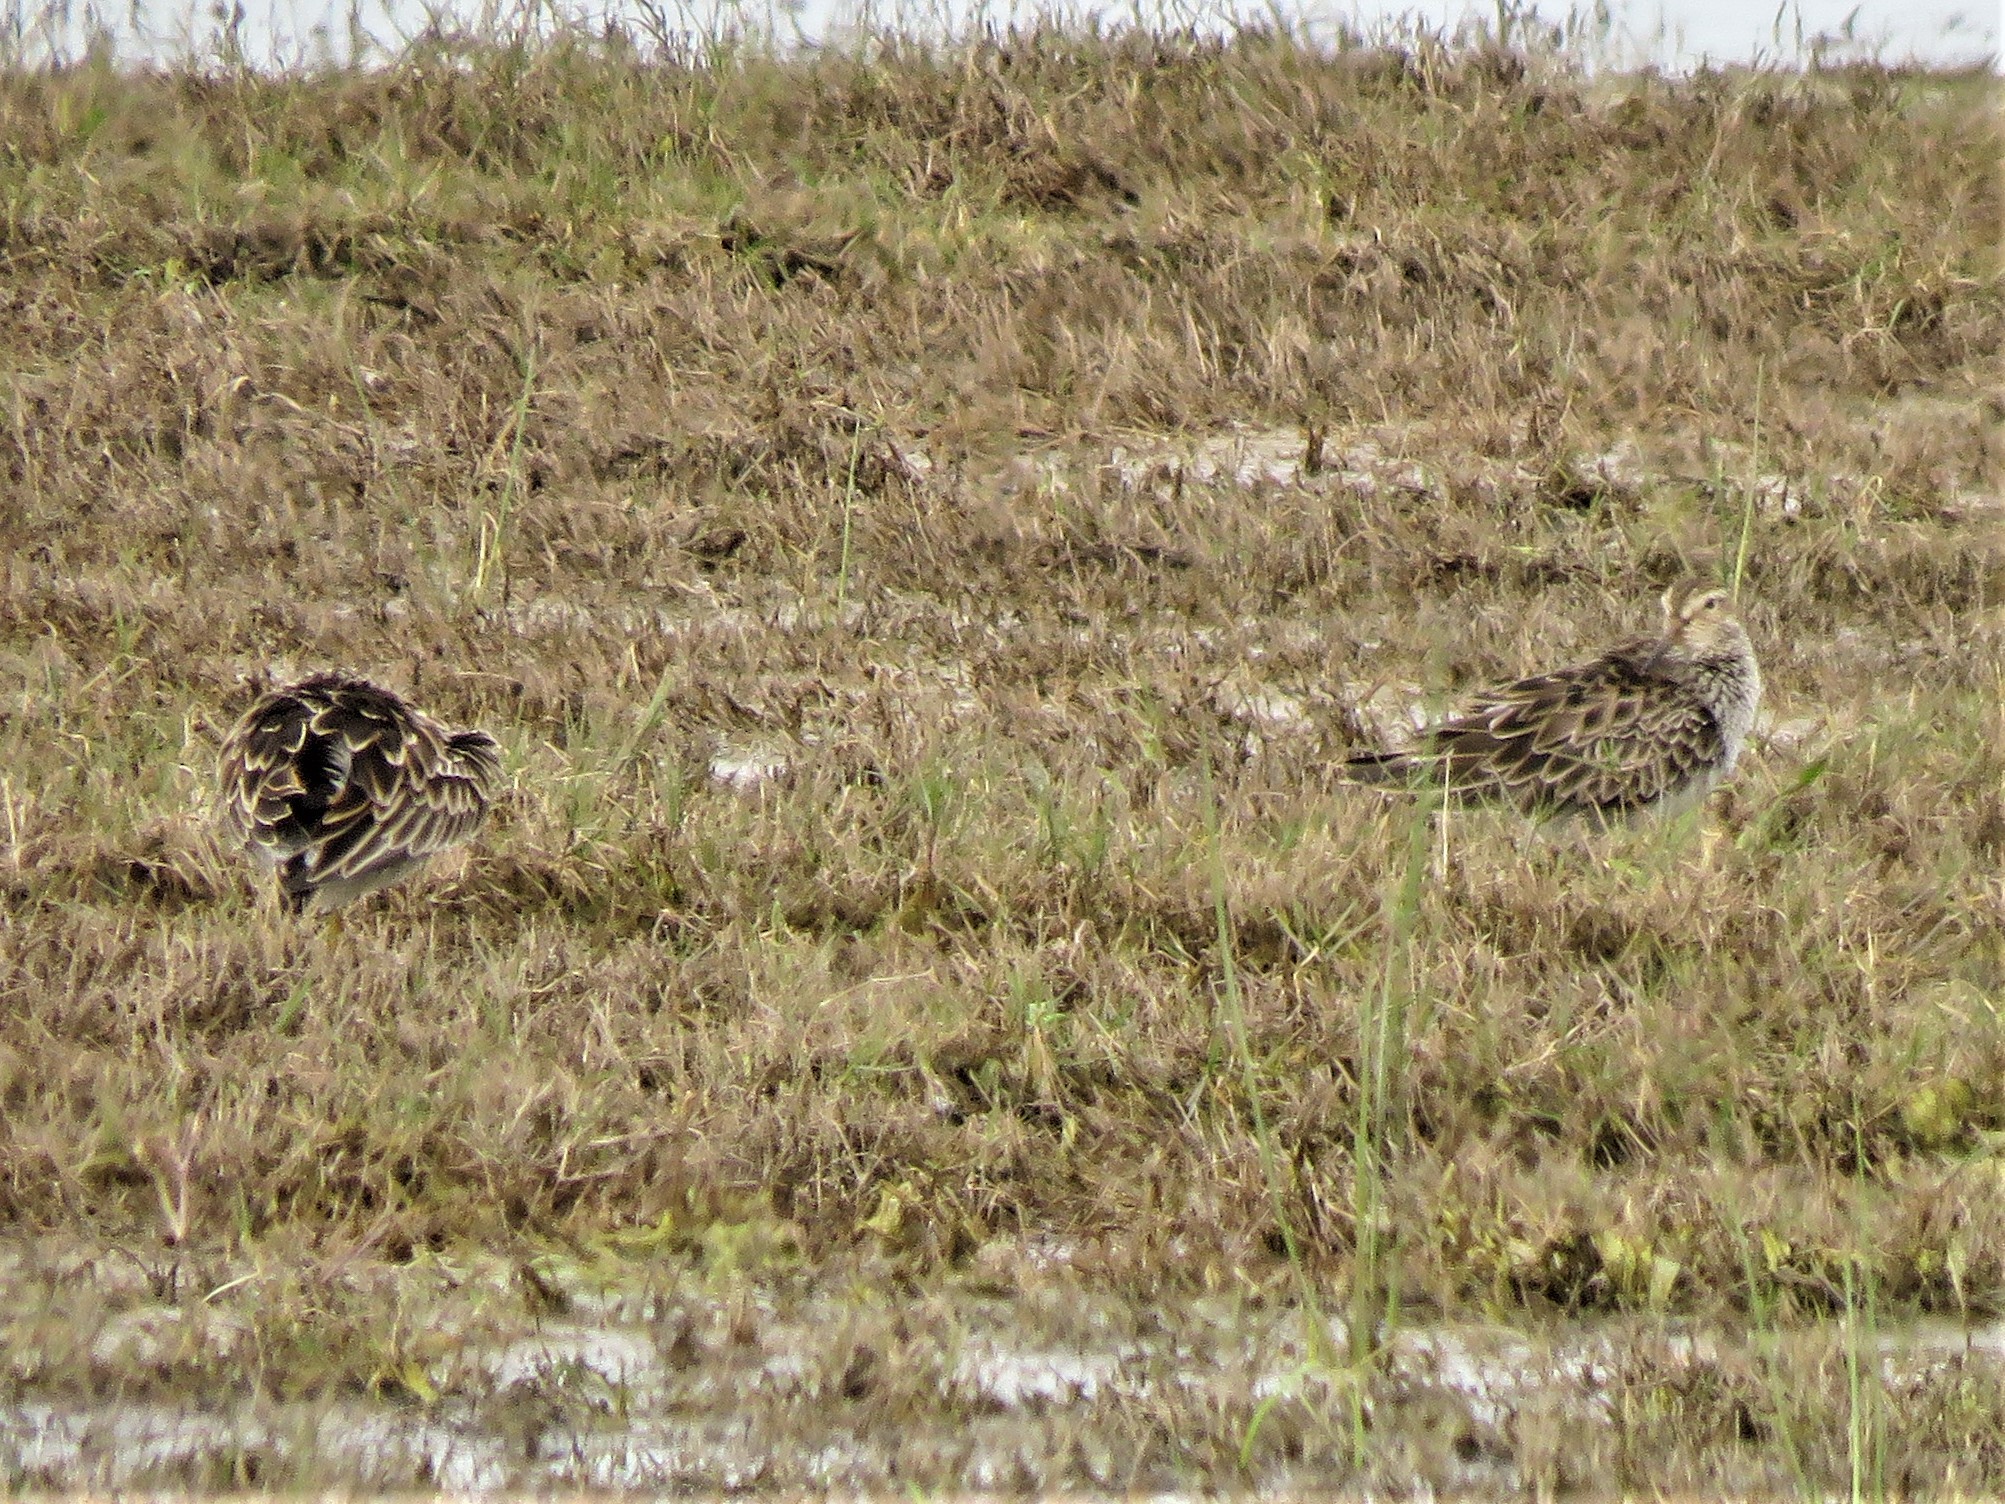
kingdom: Animalia
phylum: Chordata
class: Aves
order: Charadriiformes
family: Scolopacidae
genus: Calidris
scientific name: Calidris melanotos
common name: Pectoral sandpiper
